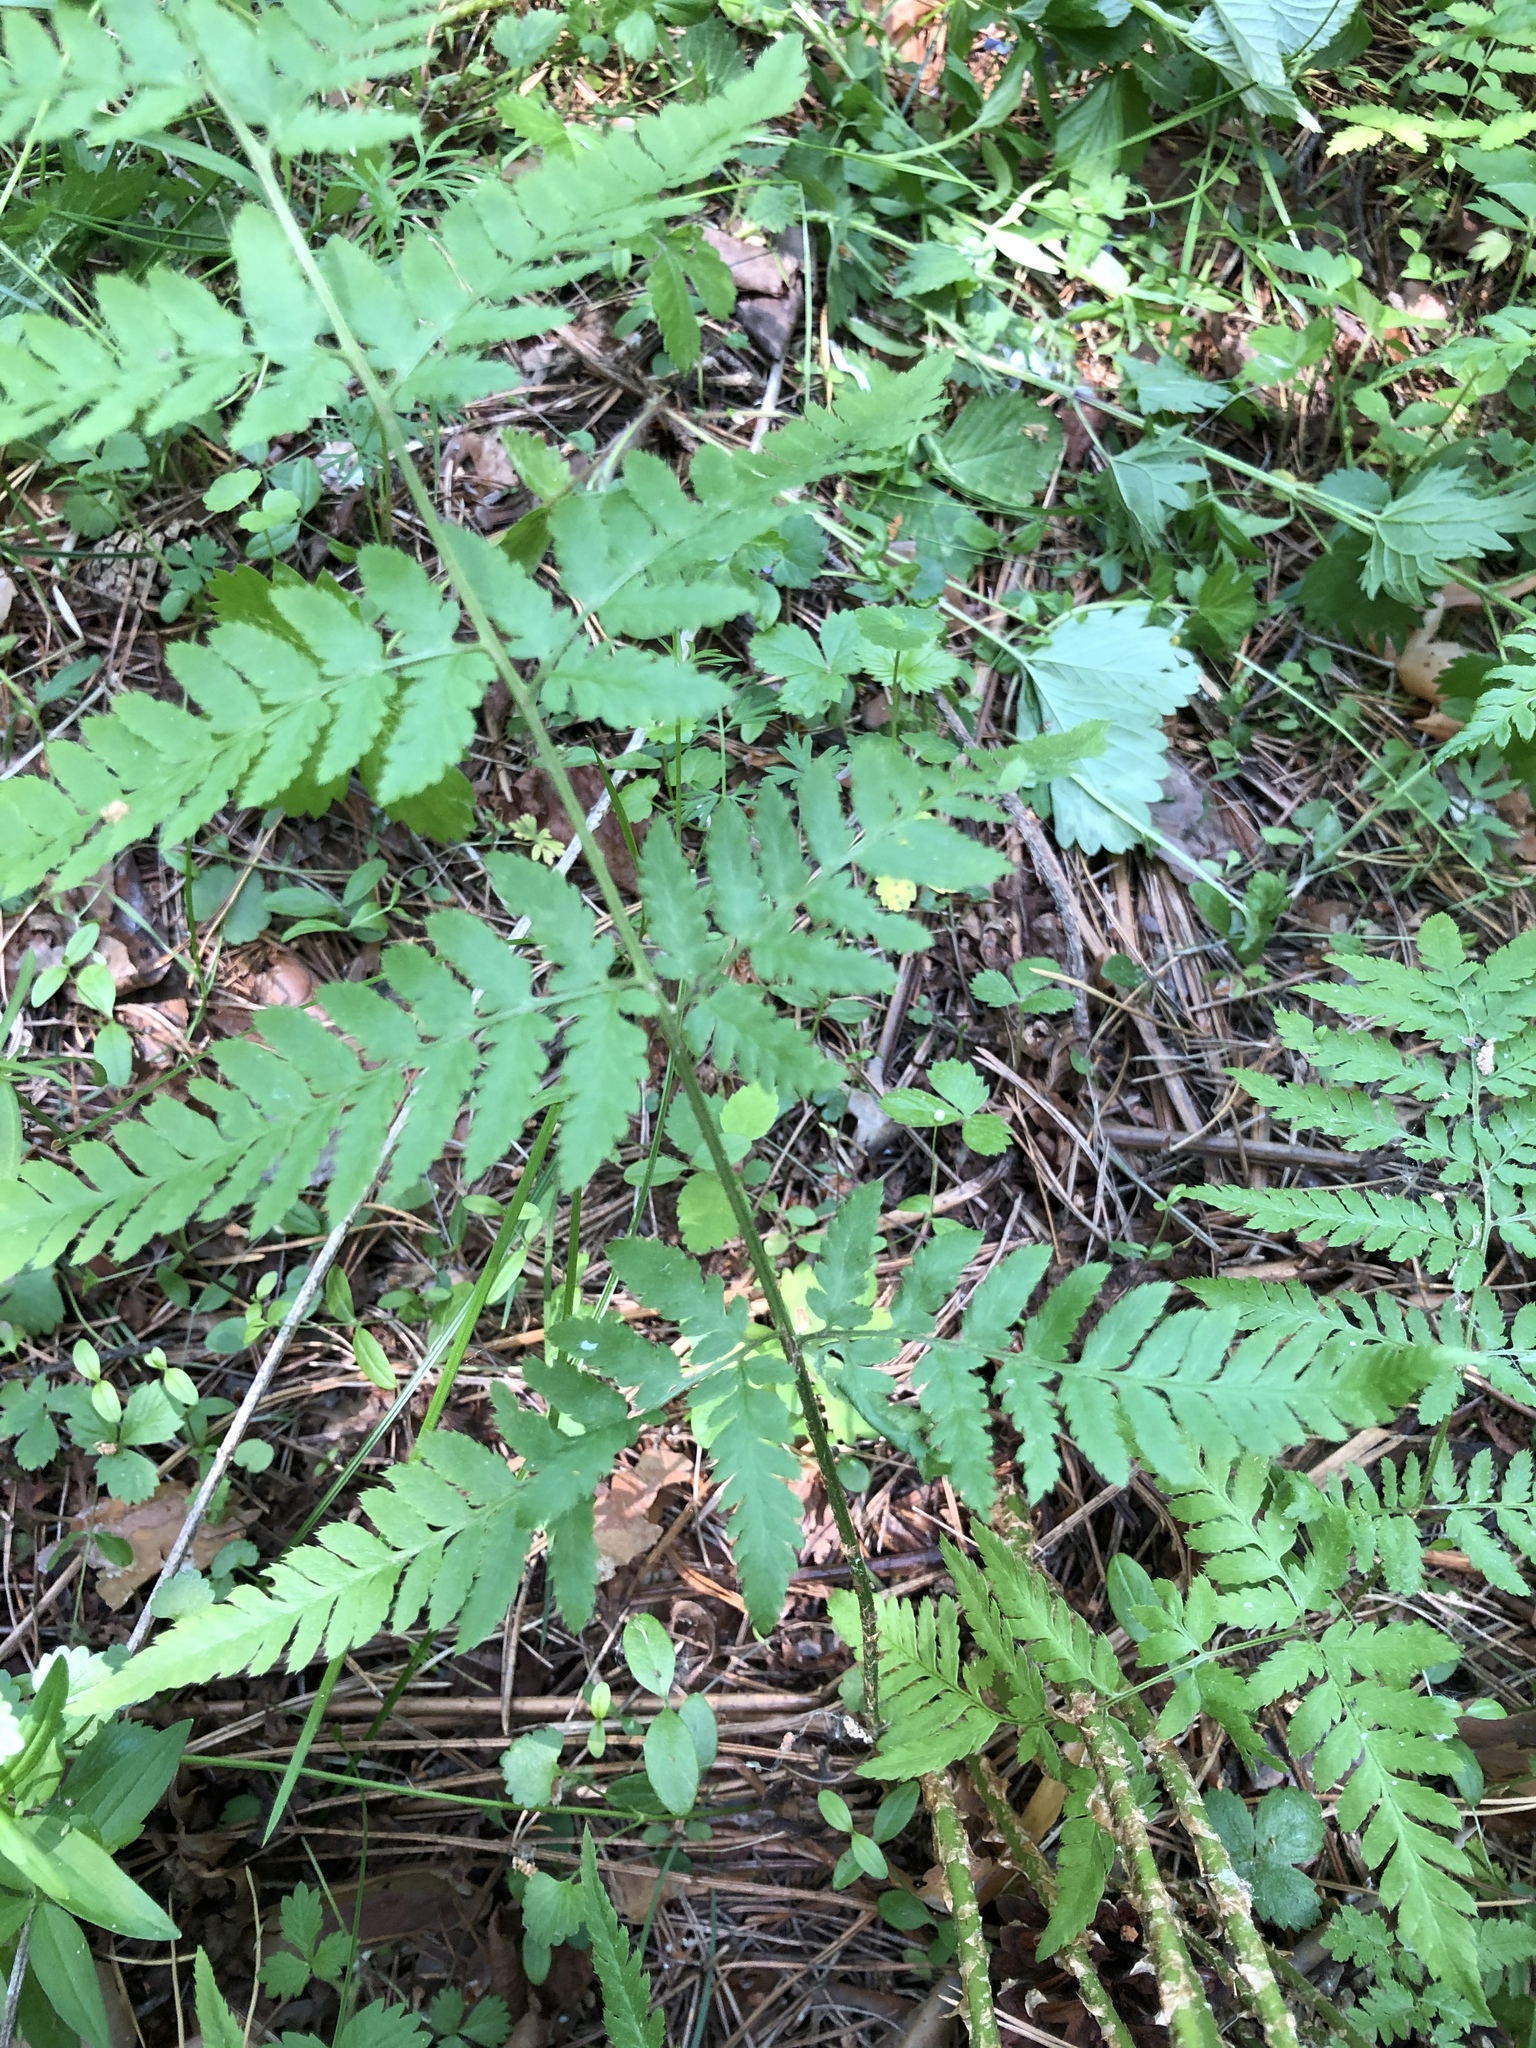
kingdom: Plantae
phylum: Tracheophyta
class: Polypodiopsida
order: Polypodiales
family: Dryopteridaceae
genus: Dryopteris
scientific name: Dryopteris carthusiana
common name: Narrow buckler-fern
